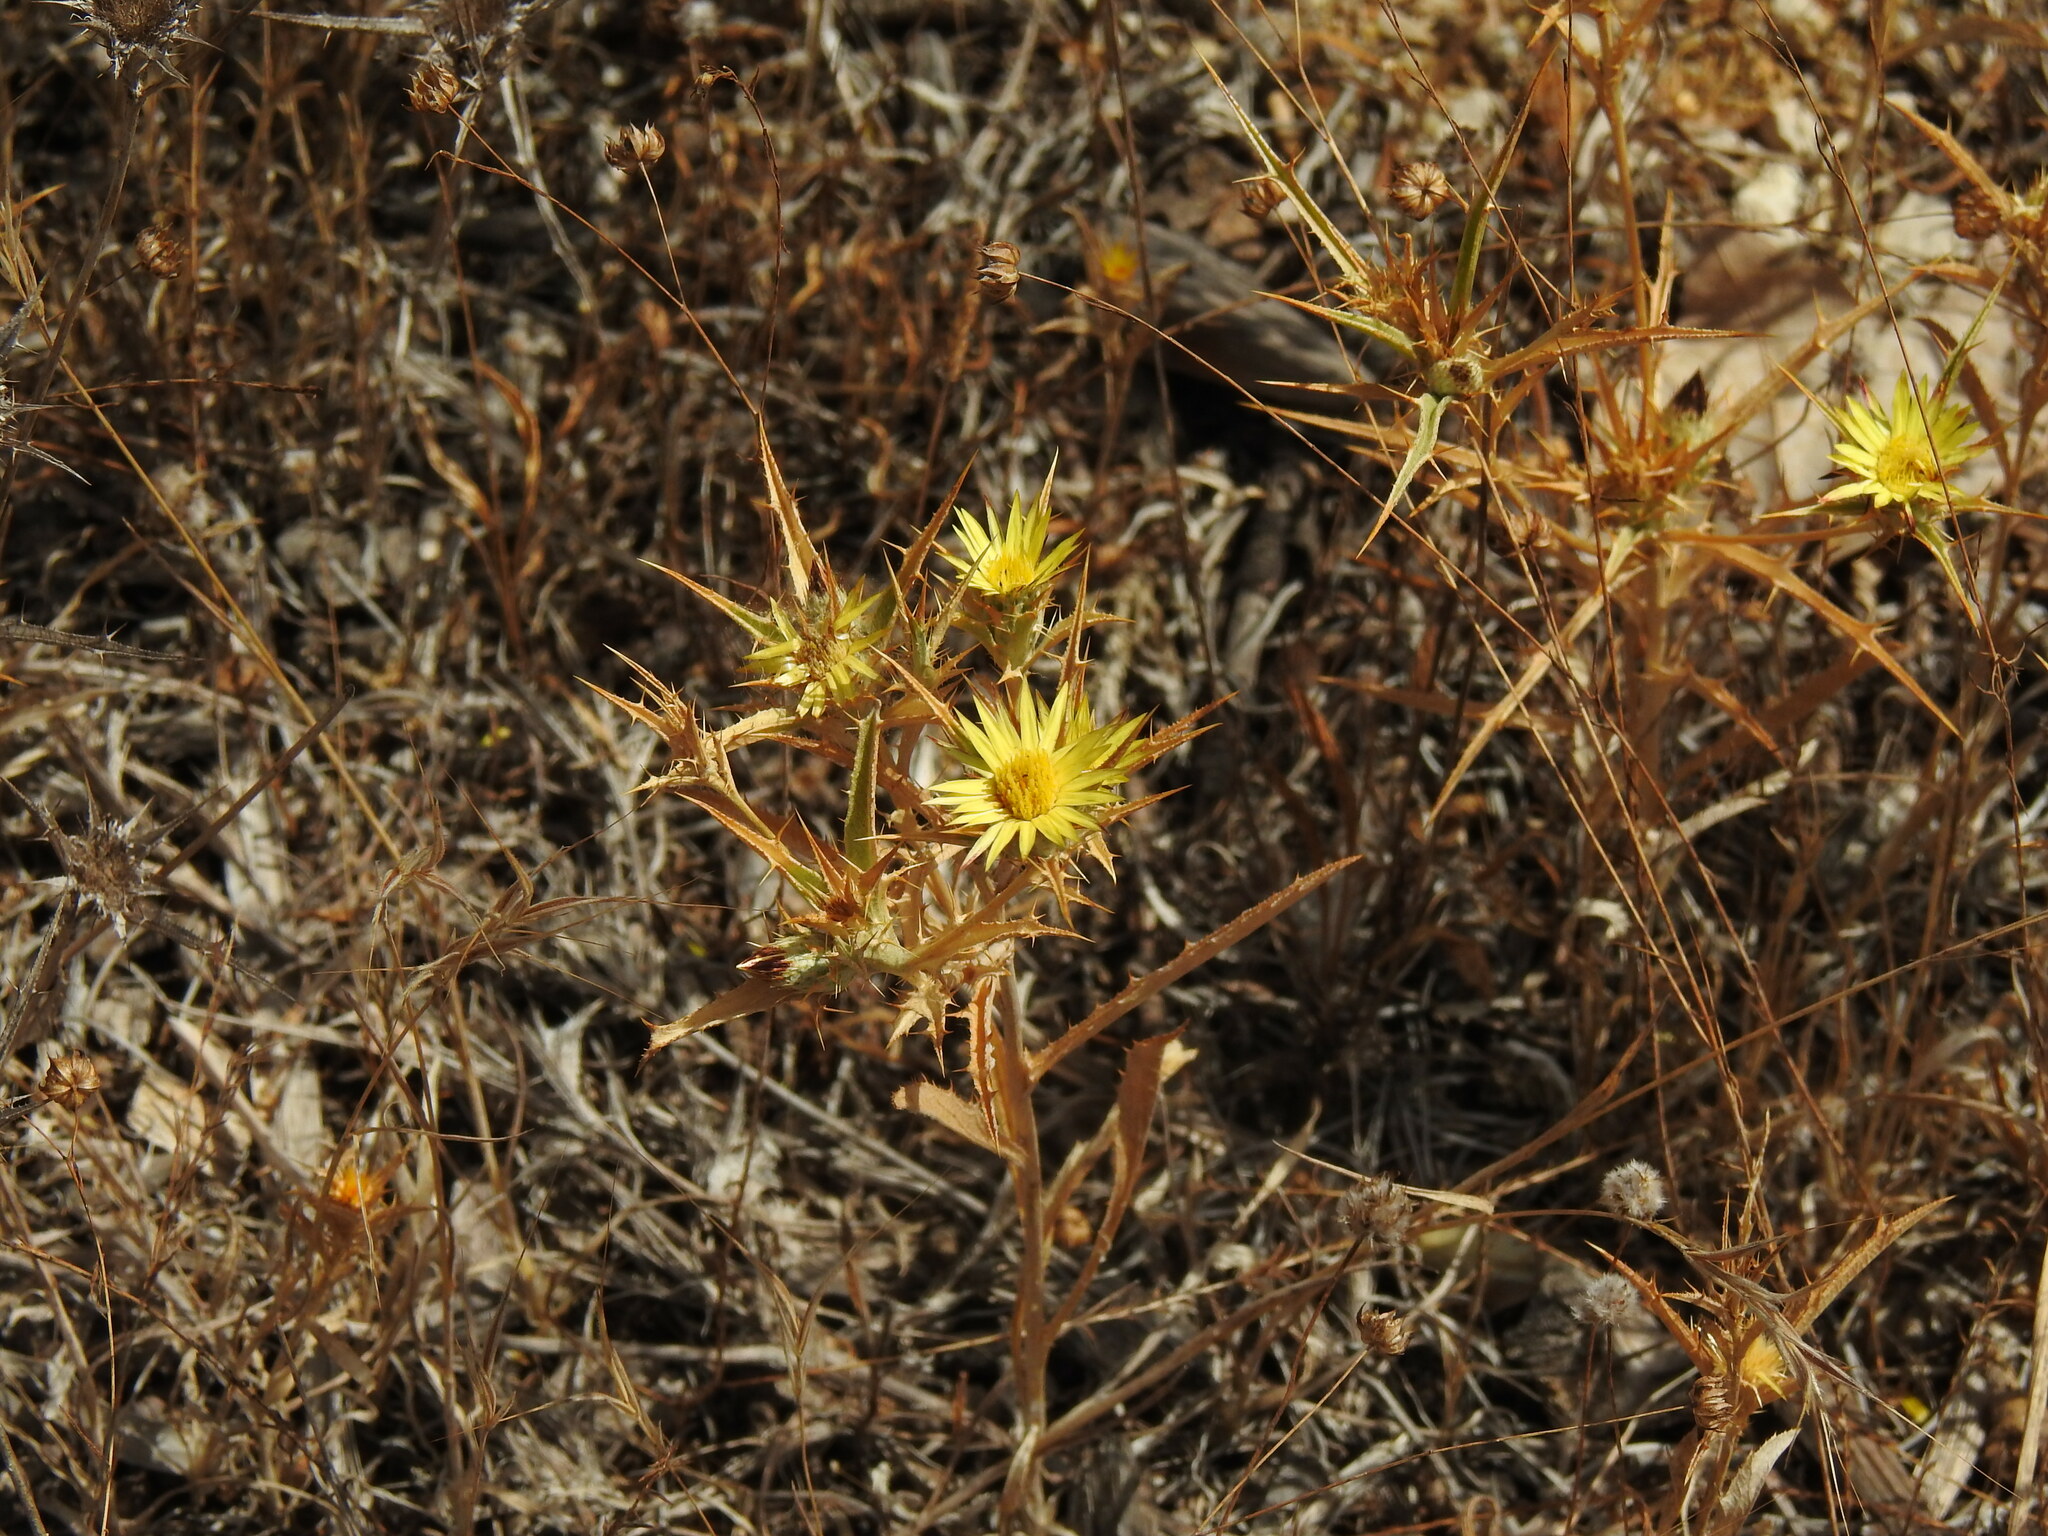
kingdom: Plantae
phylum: Tracheophyta
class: Magnoliopsida
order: Asterales
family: Asteraceae
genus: Carlina
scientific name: Carlina racemosa
